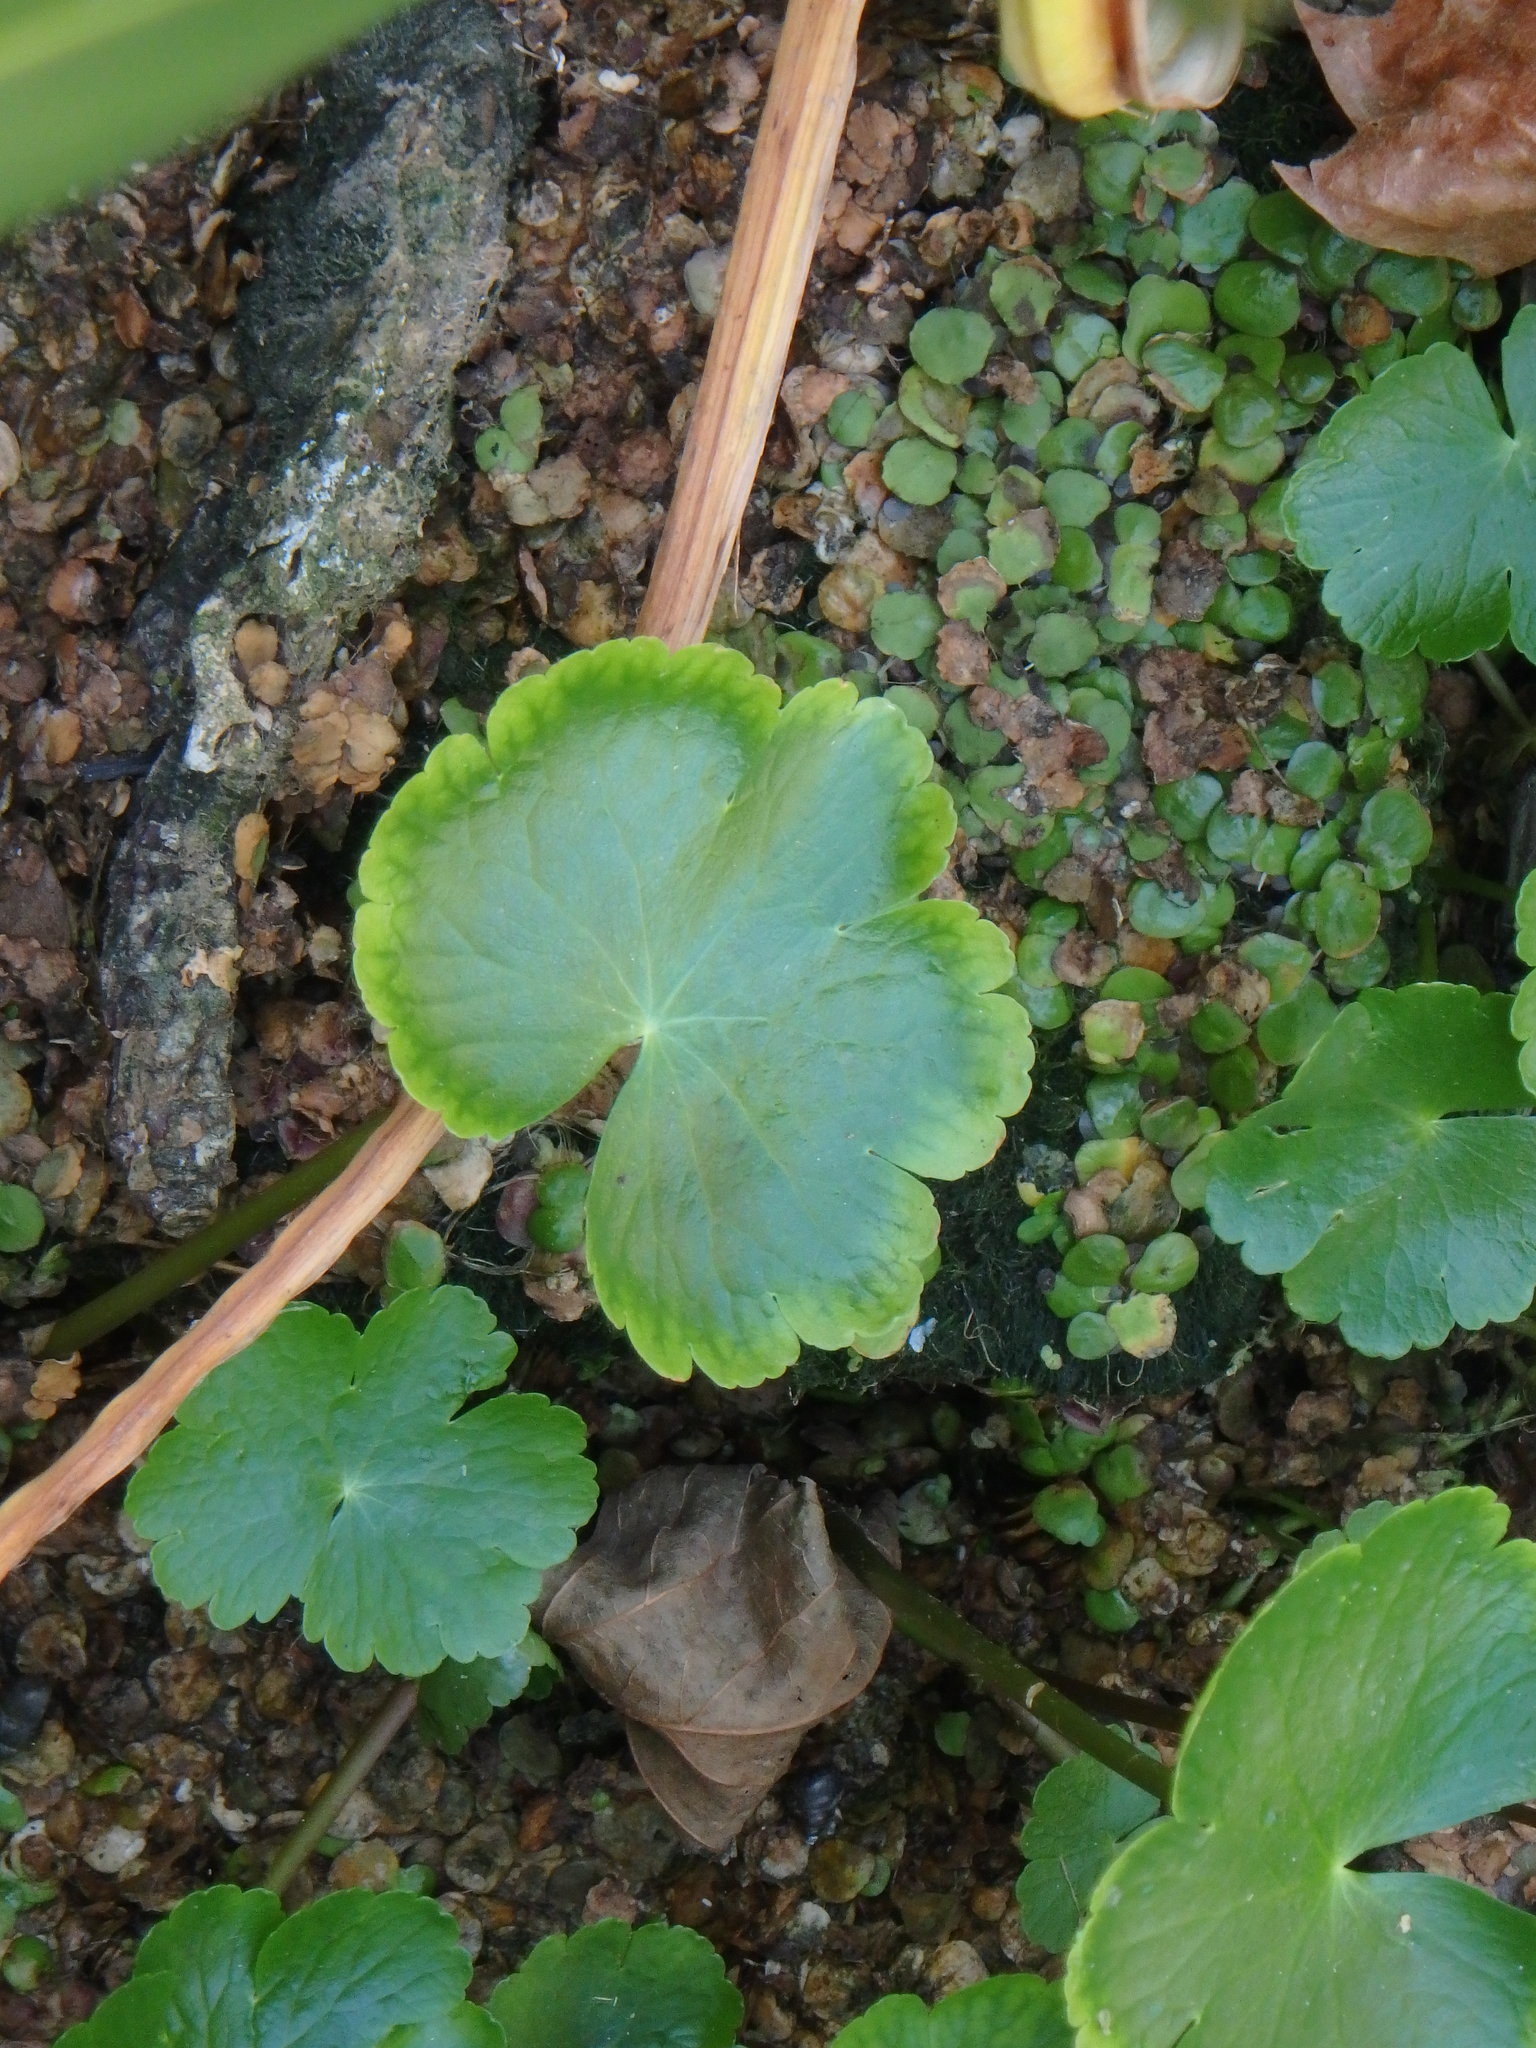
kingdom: Plantae
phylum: Tracheophyta
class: Magnoliopsida
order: Apiales
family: Araliaceae
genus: Hydrocotyle
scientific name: Hydrocotyle ranunculoides
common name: Floating pennywort
